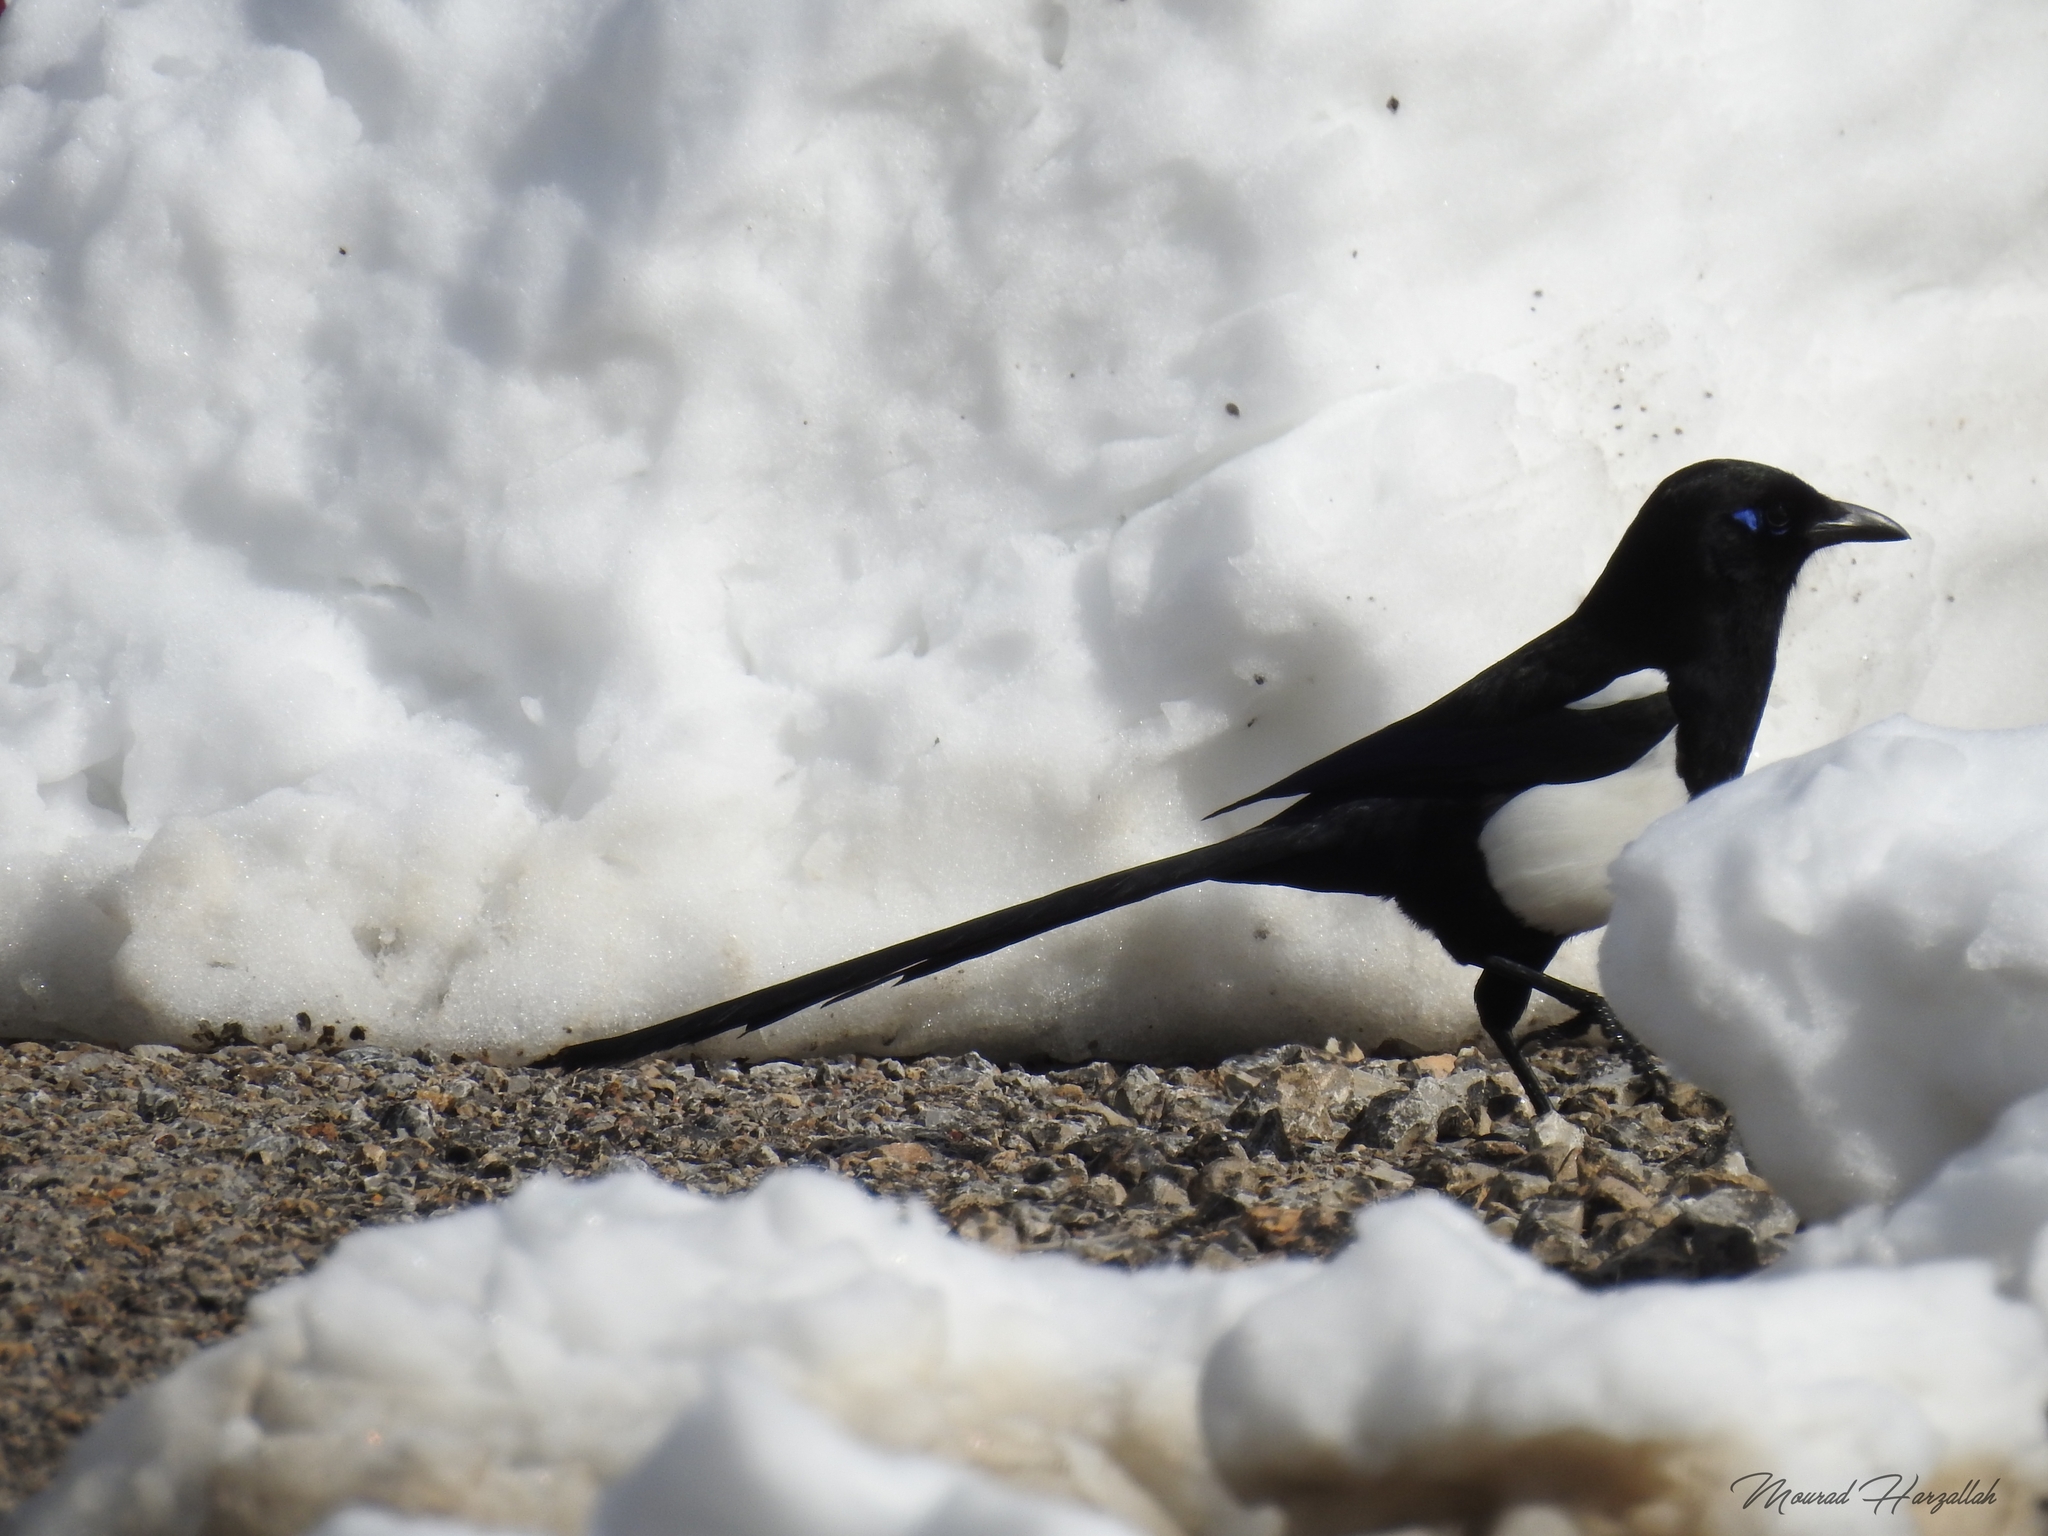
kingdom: Animalia
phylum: Chordata
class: Aves
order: Passeriformes
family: Corvidae
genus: Pica
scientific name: Pica mauritanica
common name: Maghreb magpie
